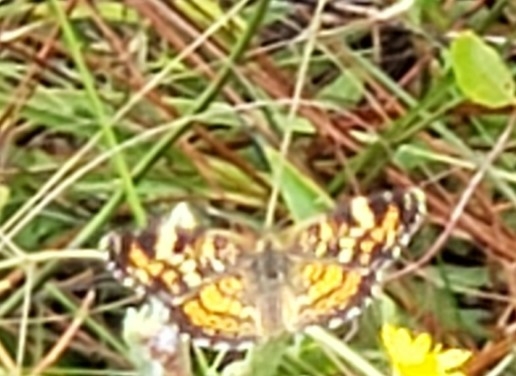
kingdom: Animalia
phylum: Arthropoda
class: Insecta
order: Lepidoptera
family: Nymphalidae
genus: Phyciodes
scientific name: Phyciodes phaon
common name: Phaon crescent
